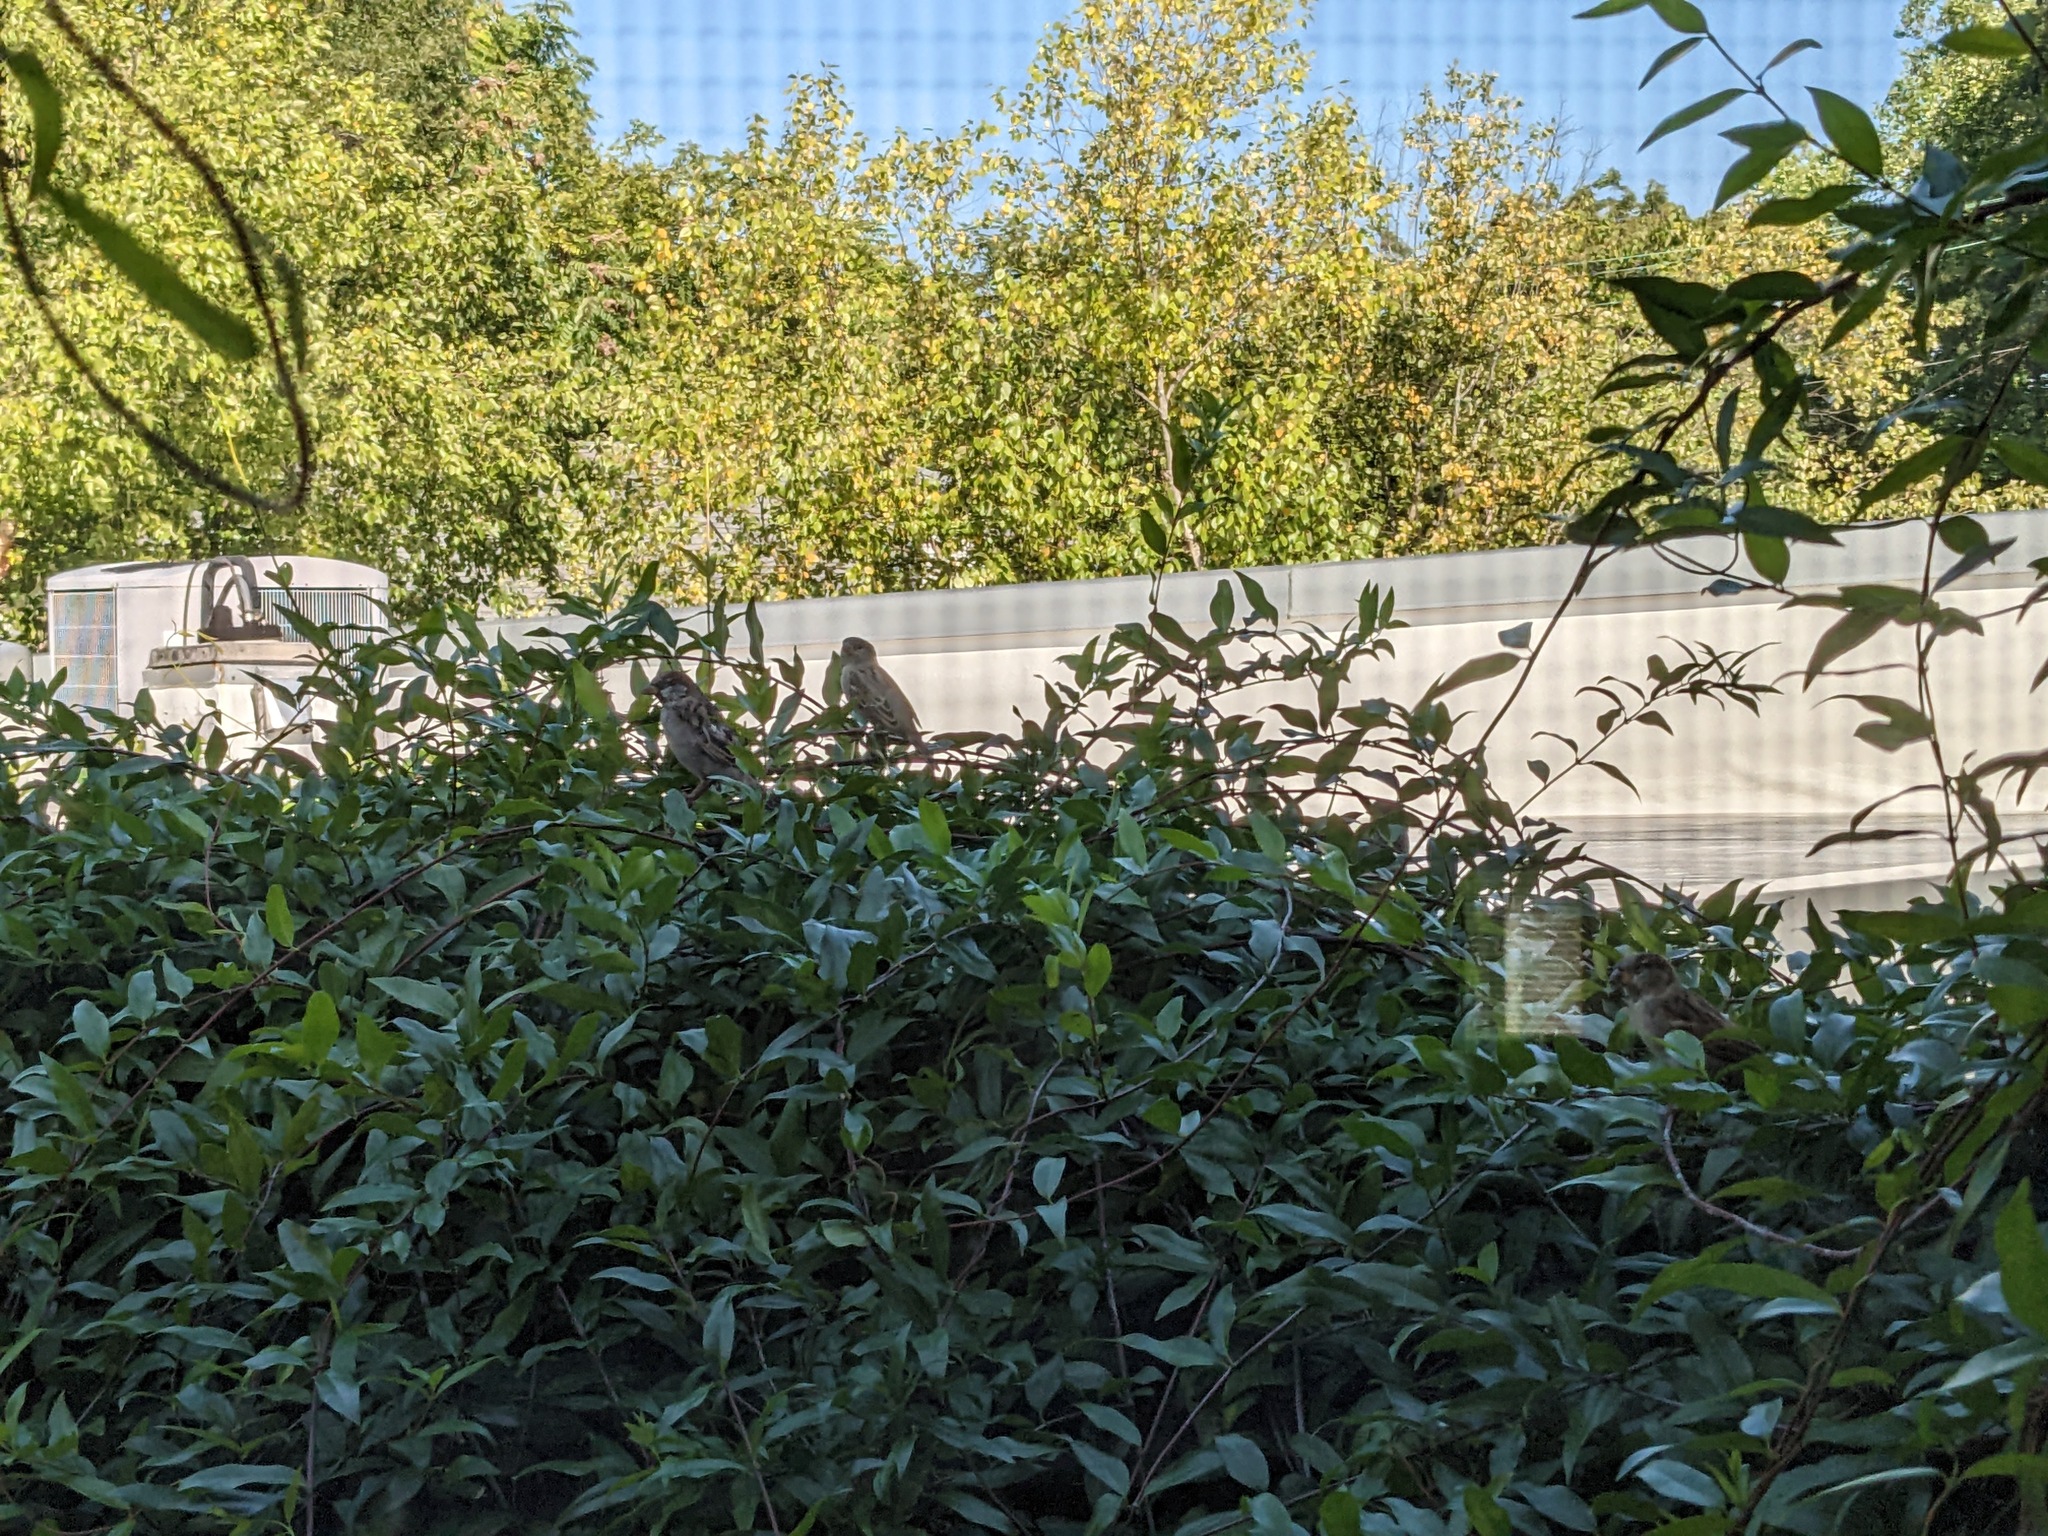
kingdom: Animalia
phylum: Chordata
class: Aves
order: Passeriformes
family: Passeridae
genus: Passer
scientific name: Passer domesticus
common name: House sparrow
